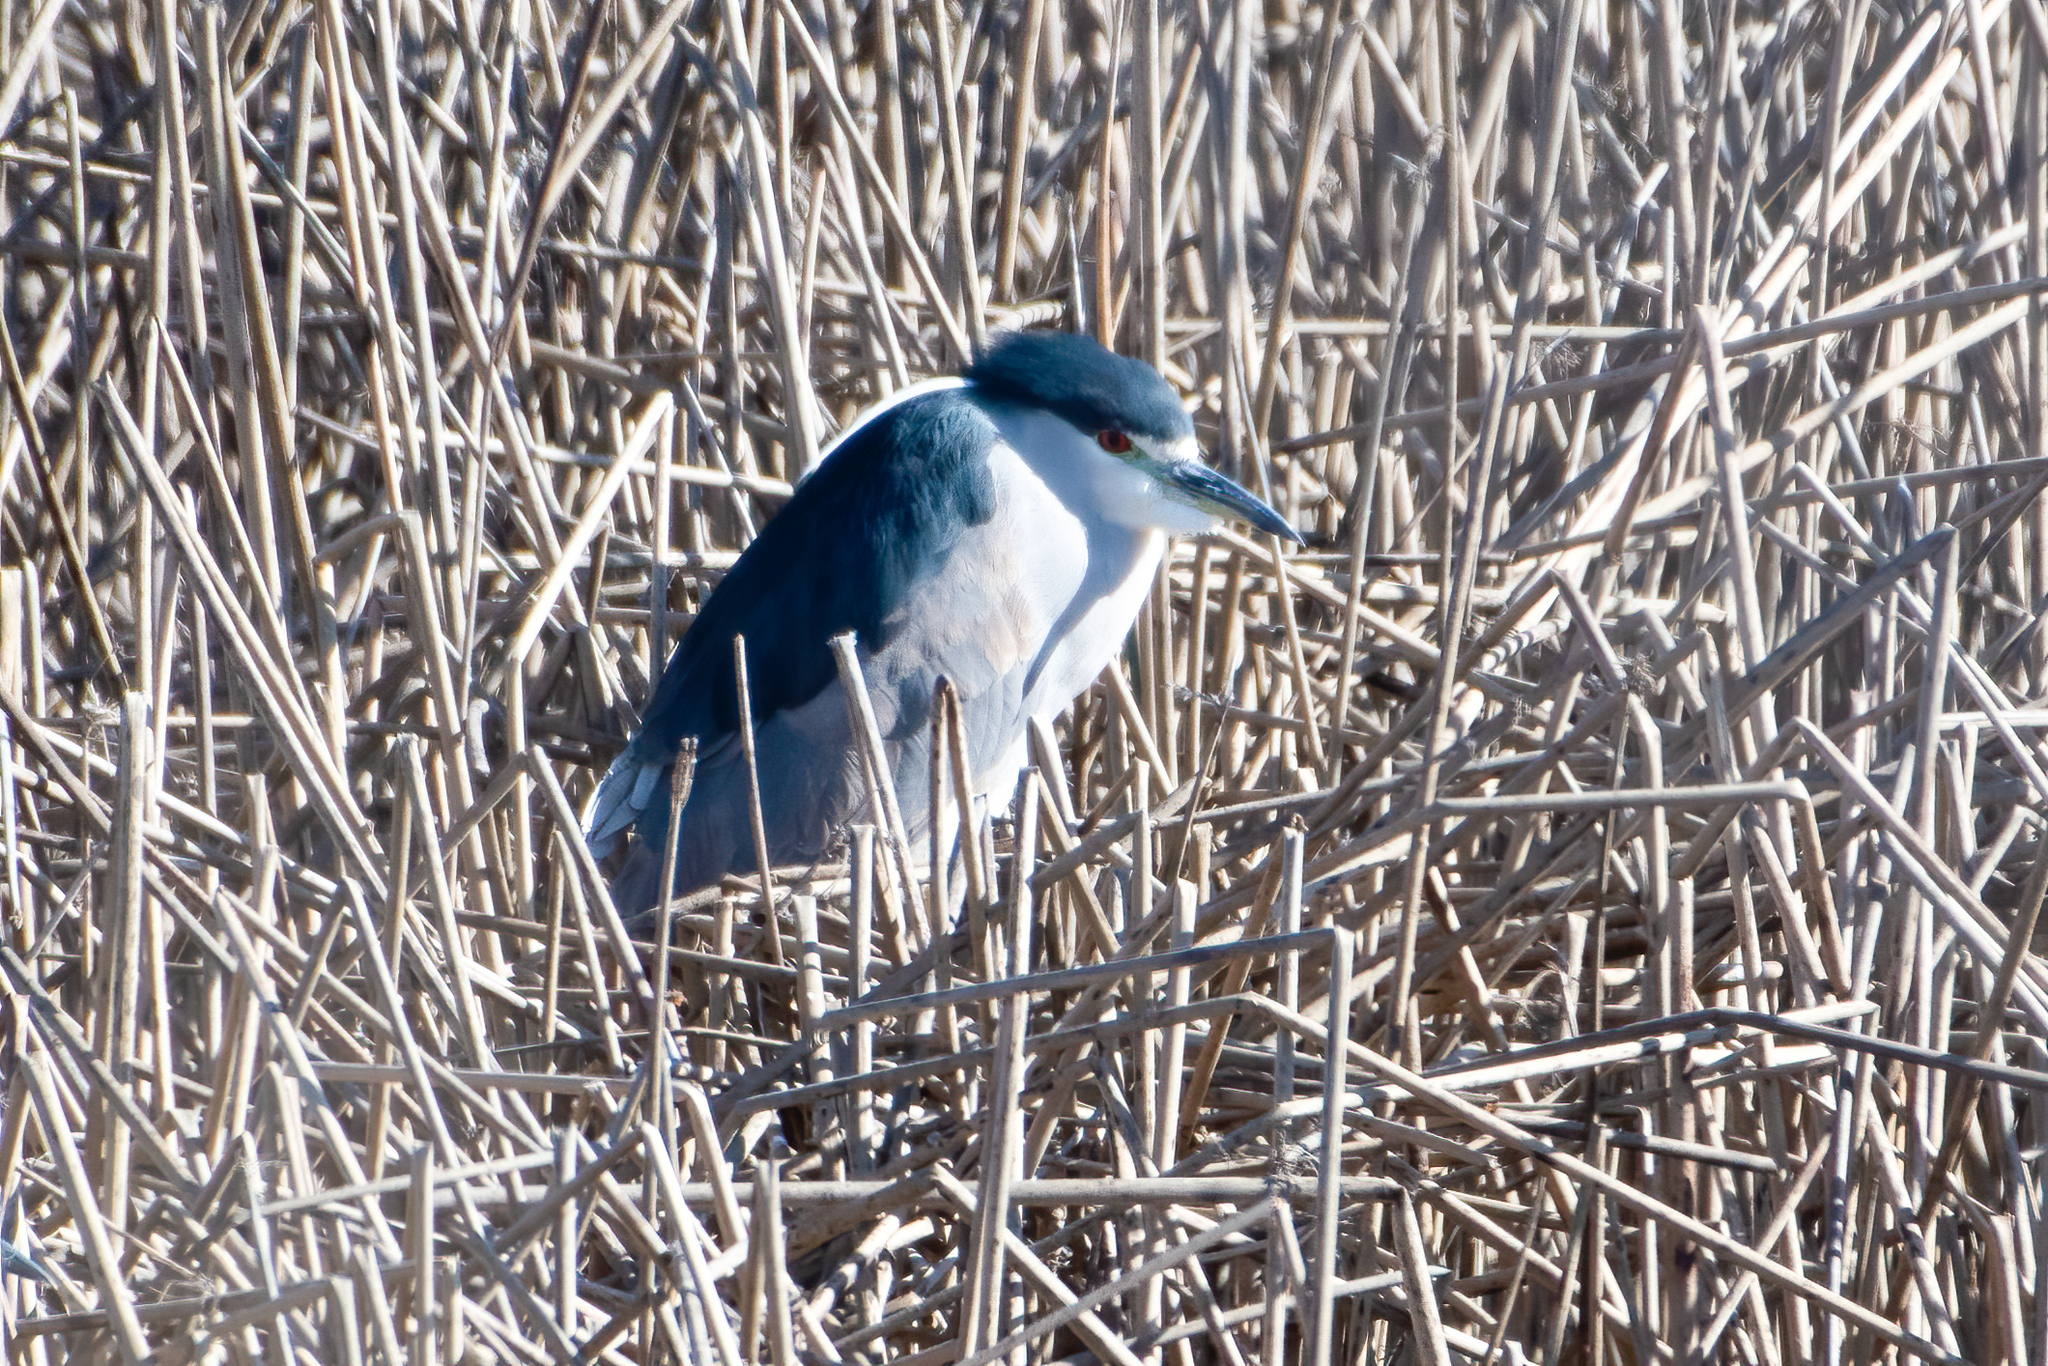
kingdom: Animalia
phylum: Chordata
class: Aves
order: Pelecaniformes
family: Ardeidae
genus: Nycticorax
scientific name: Nycticorax nycticorax
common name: Black-crowned night heron
